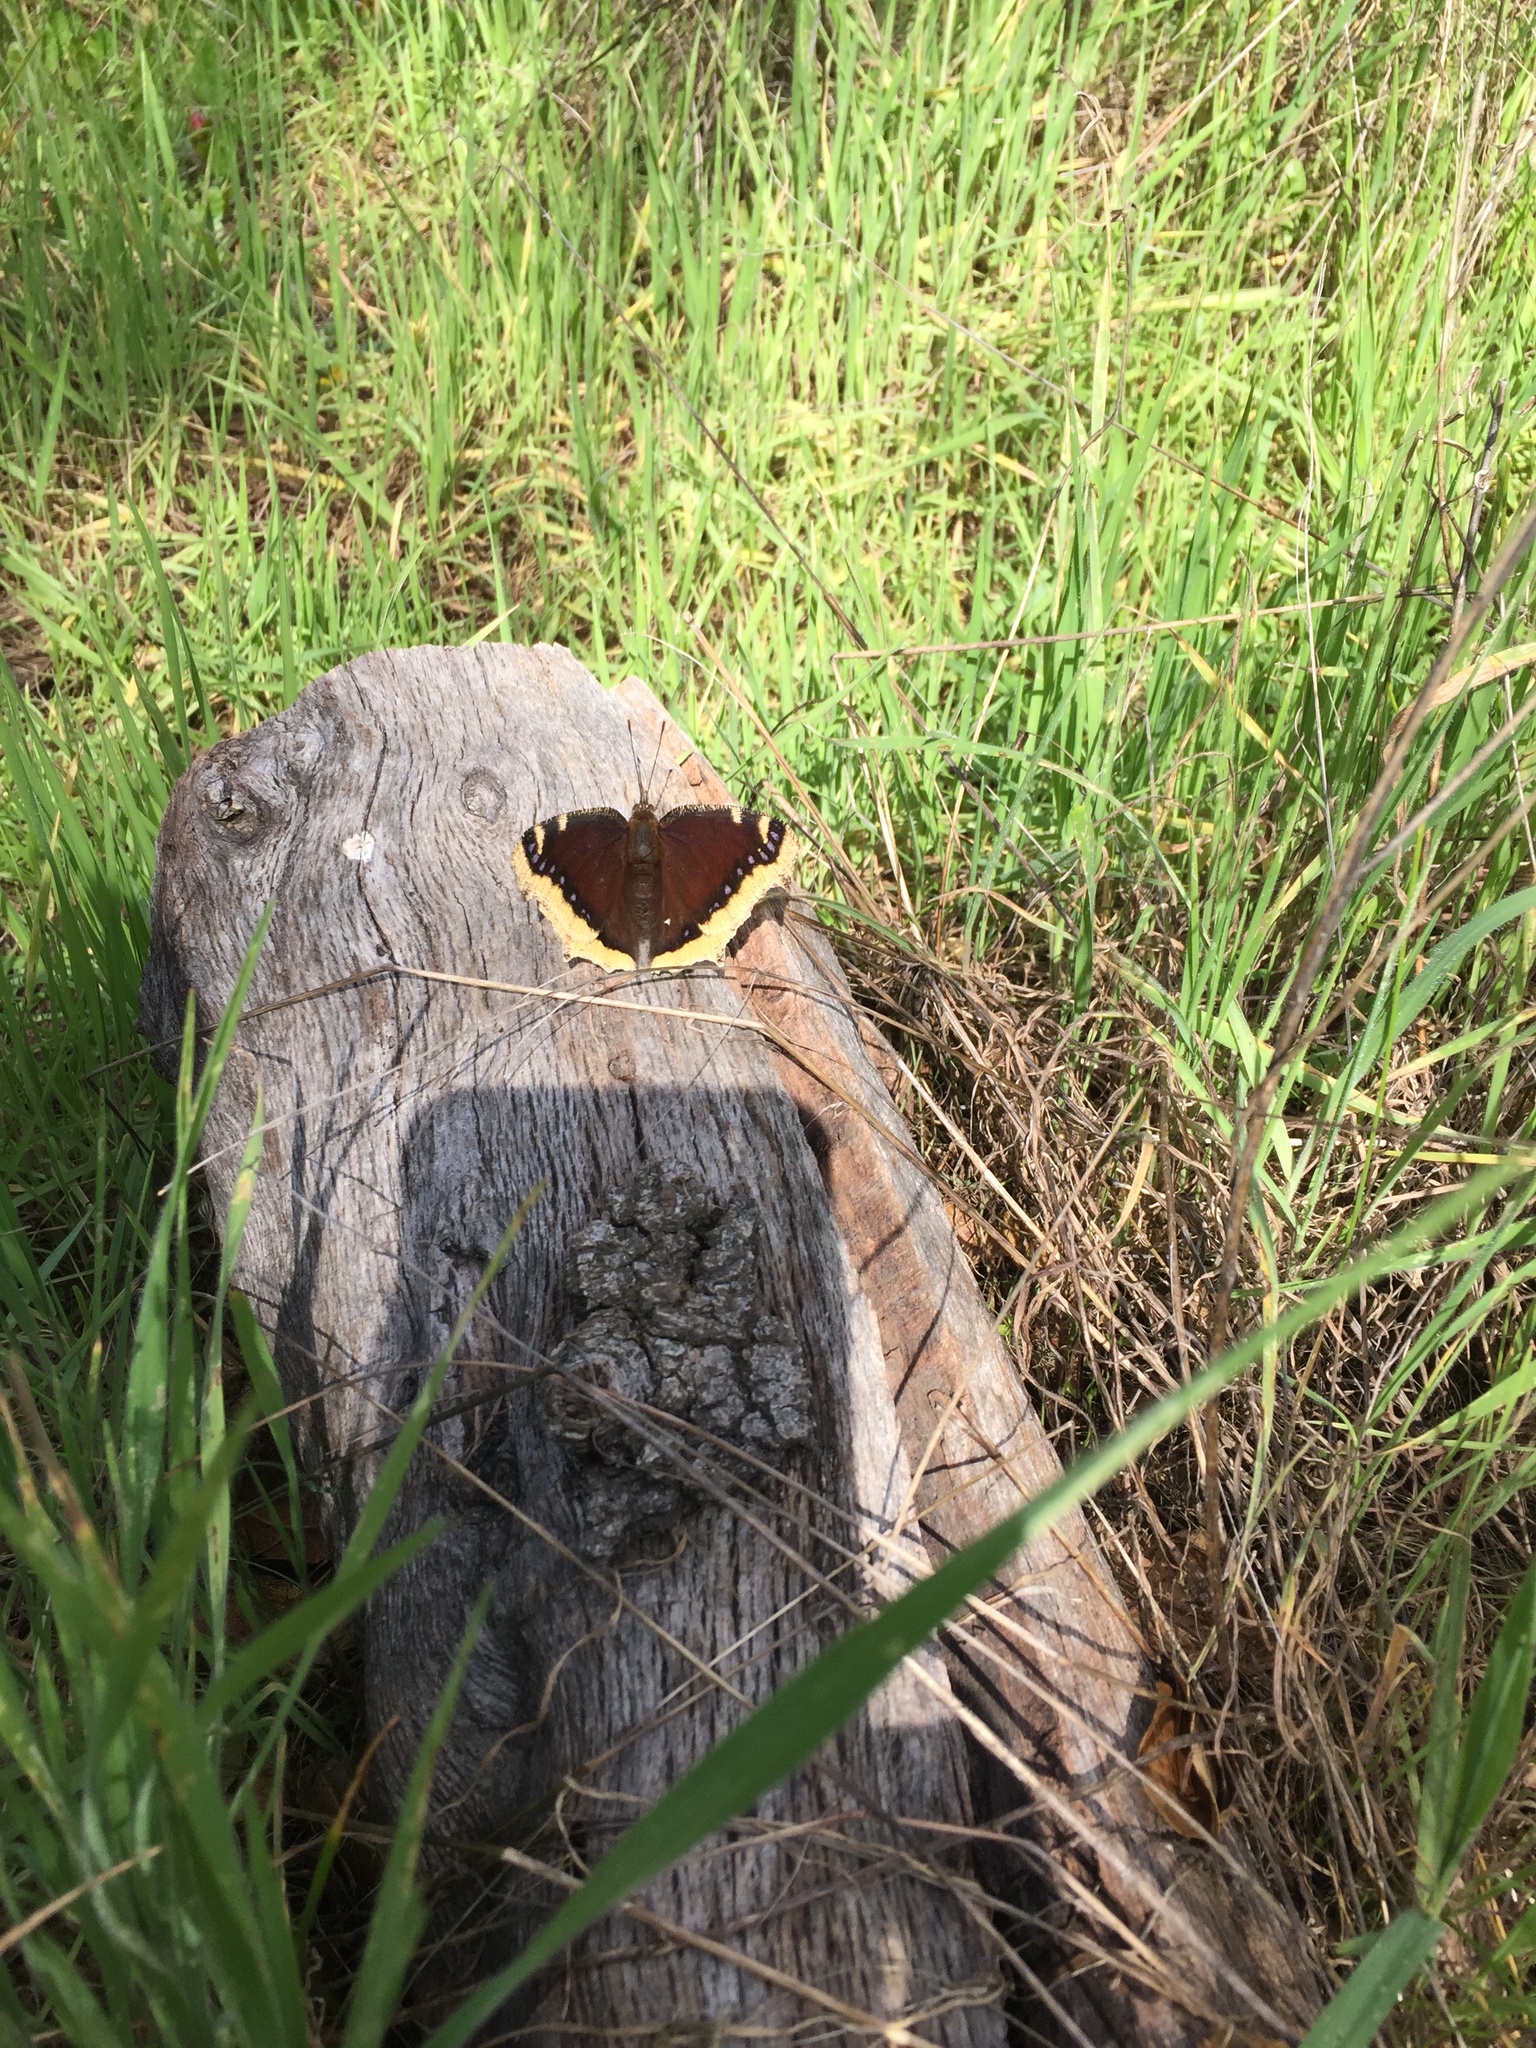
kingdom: Animalia
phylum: Arthropoda
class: Insecta
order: Lepidoptera
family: Nymphalidae
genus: Nymphalis
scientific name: Nymphalis antiopa
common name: Camberwell beauty
